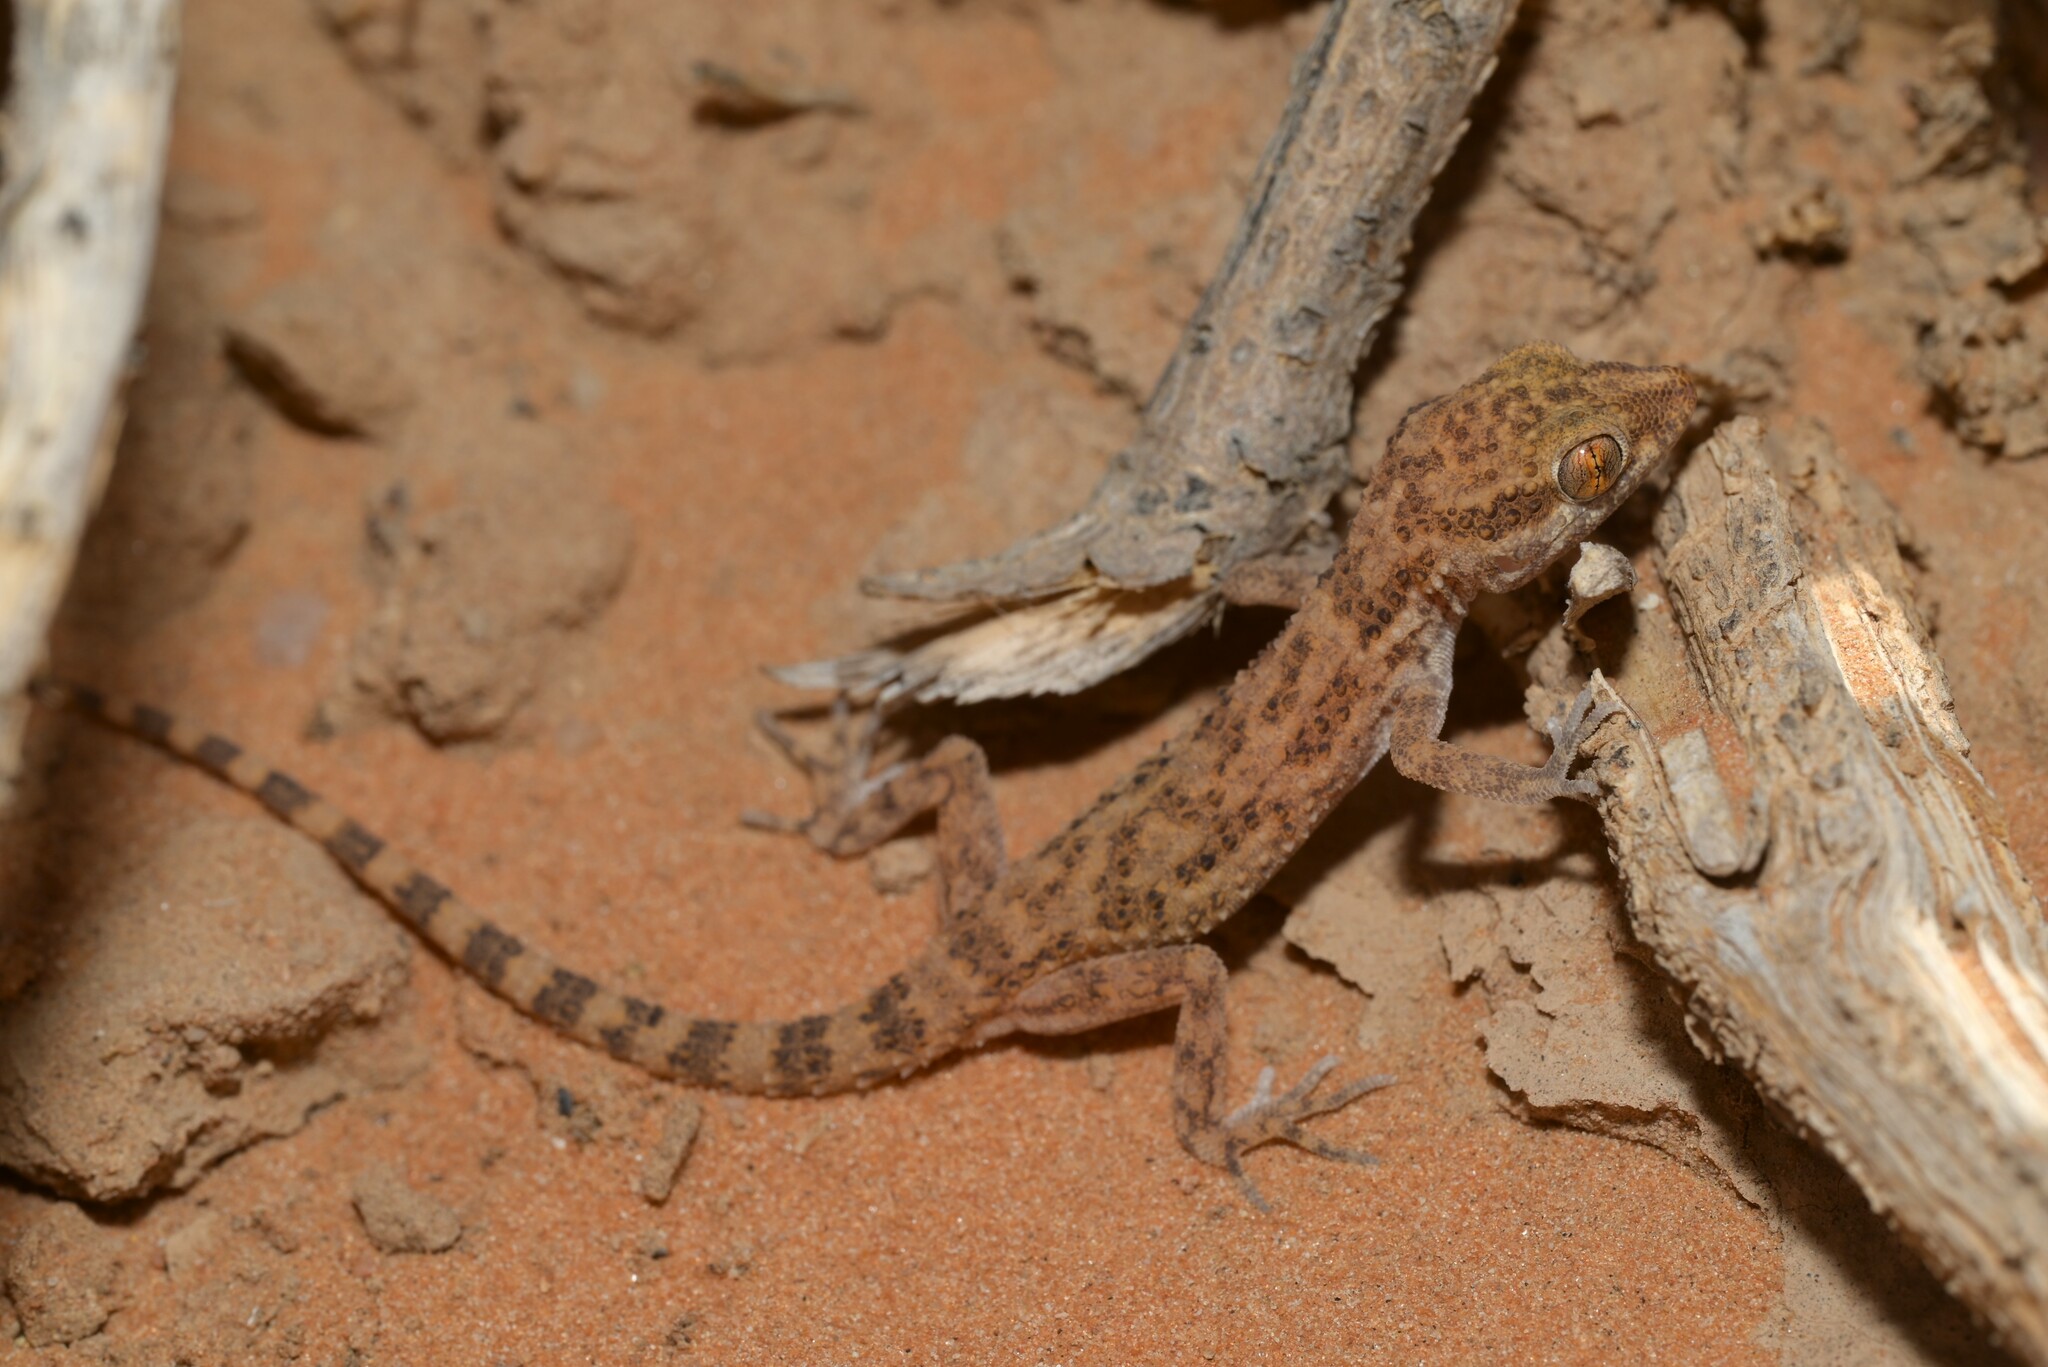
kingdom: Animalia
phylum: Chordata
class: Squamata
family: Gekkonidae
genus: Bunopus
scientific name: Bunopus tuberculatus
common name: Southern tuberculated gecko
